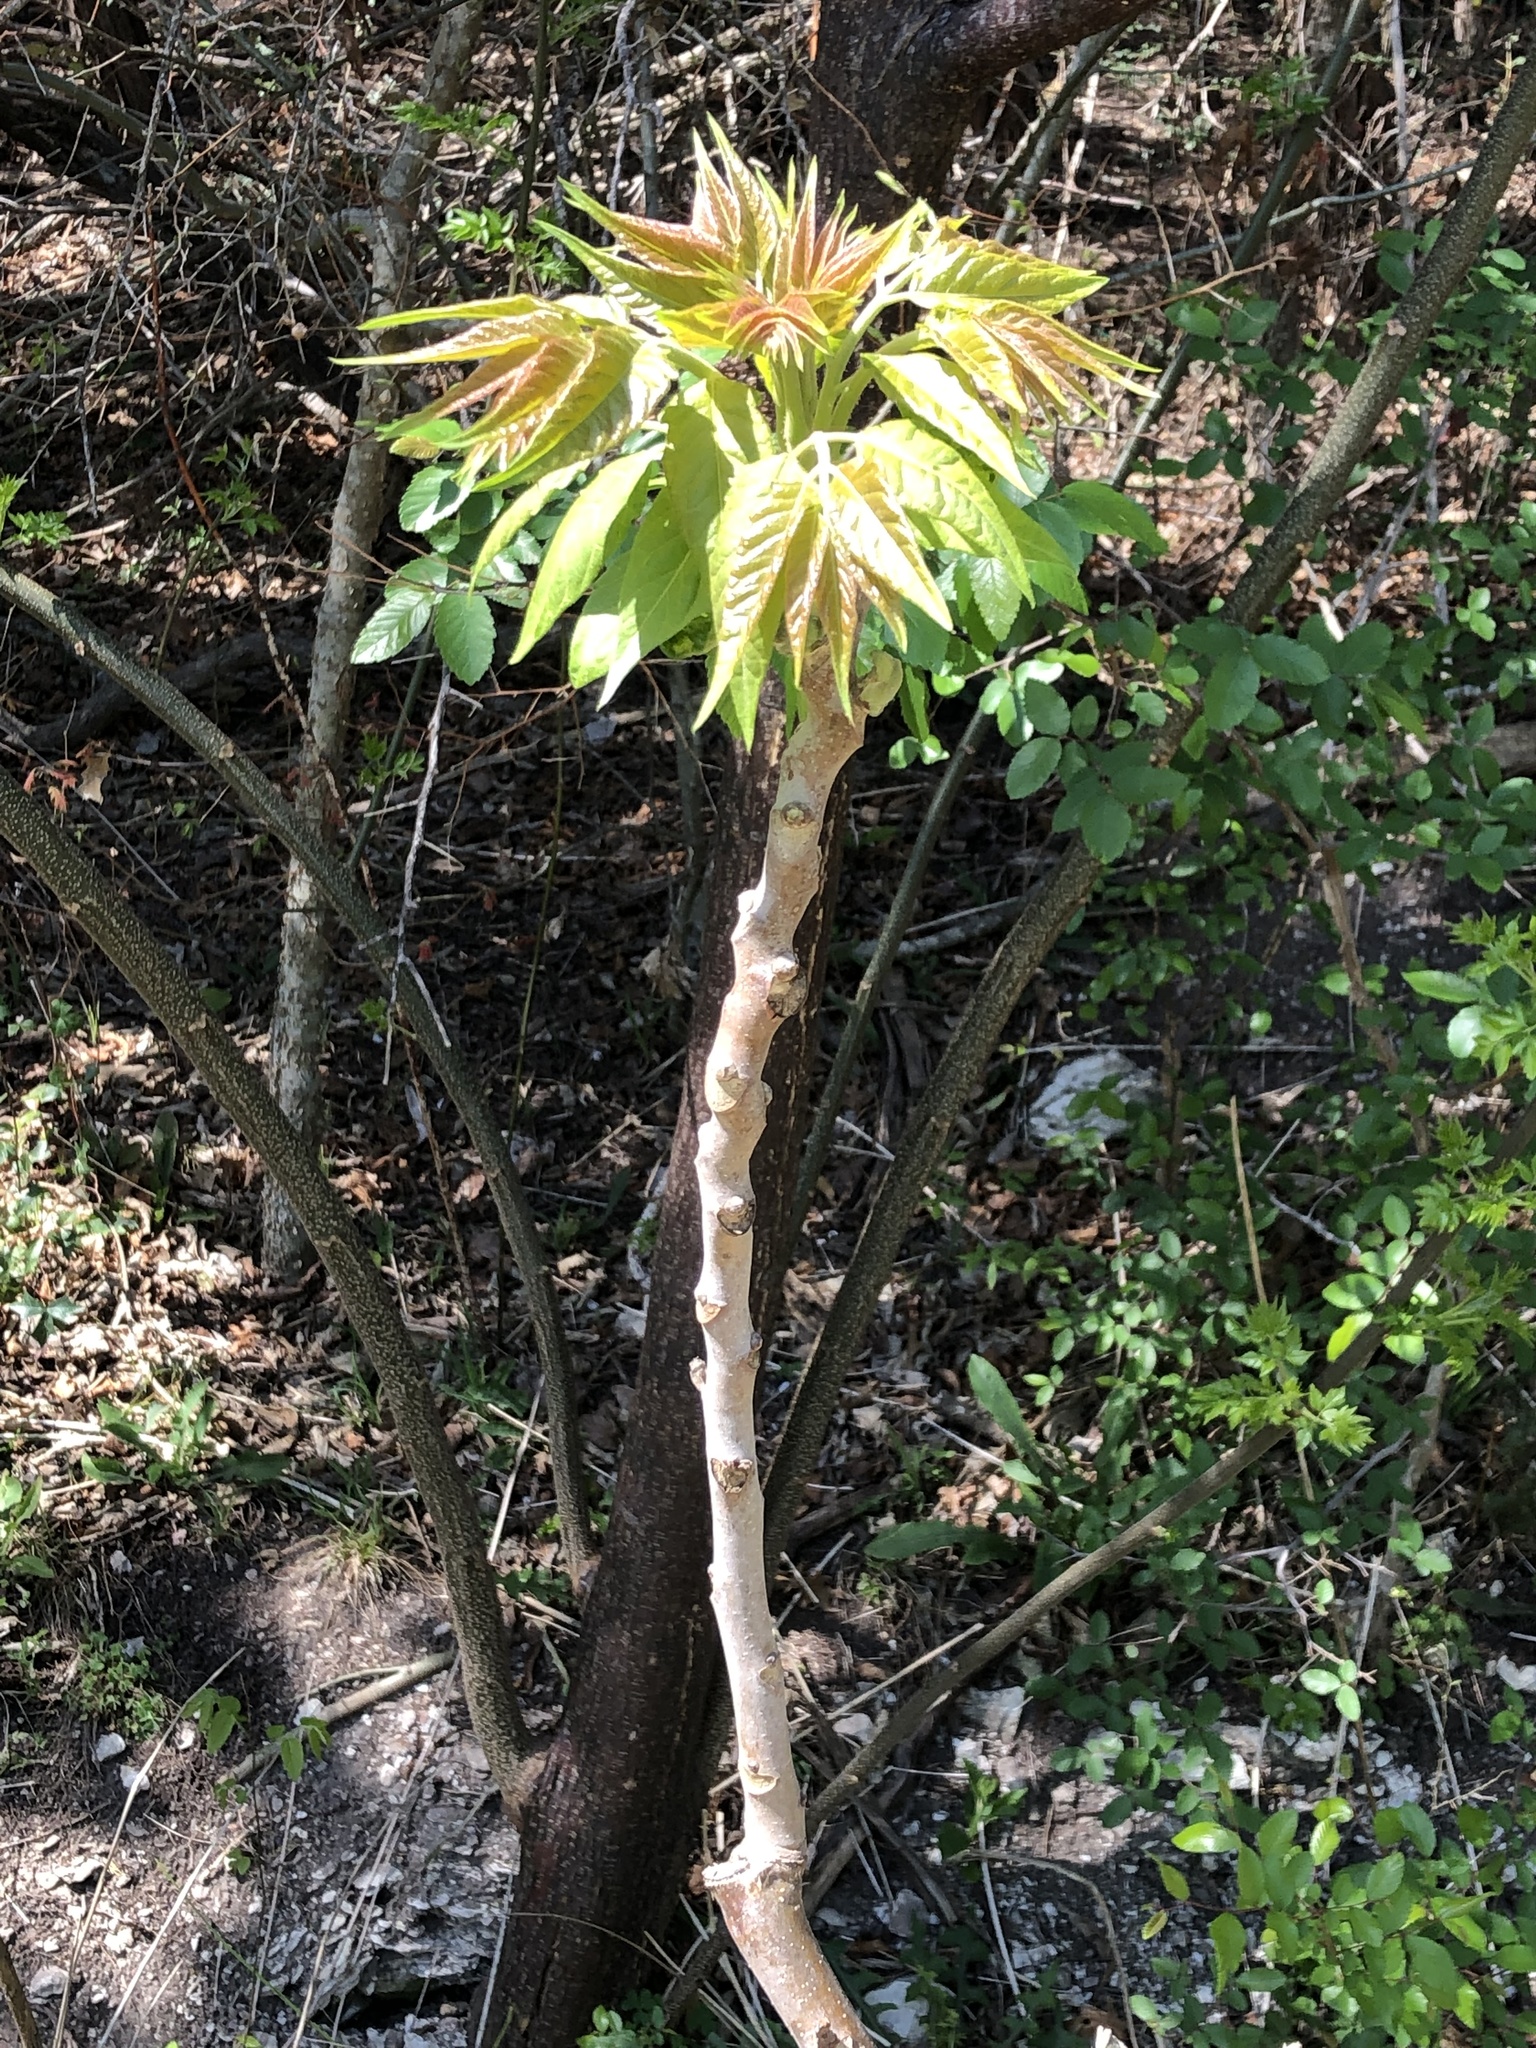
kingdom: Plantae
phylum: Tracheophyta
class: Magnoliopsida
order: Sapindales
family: Simaroubaceae
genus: Ailanthus
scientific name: Ailanthus altissima
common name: Tree-of-heaven
